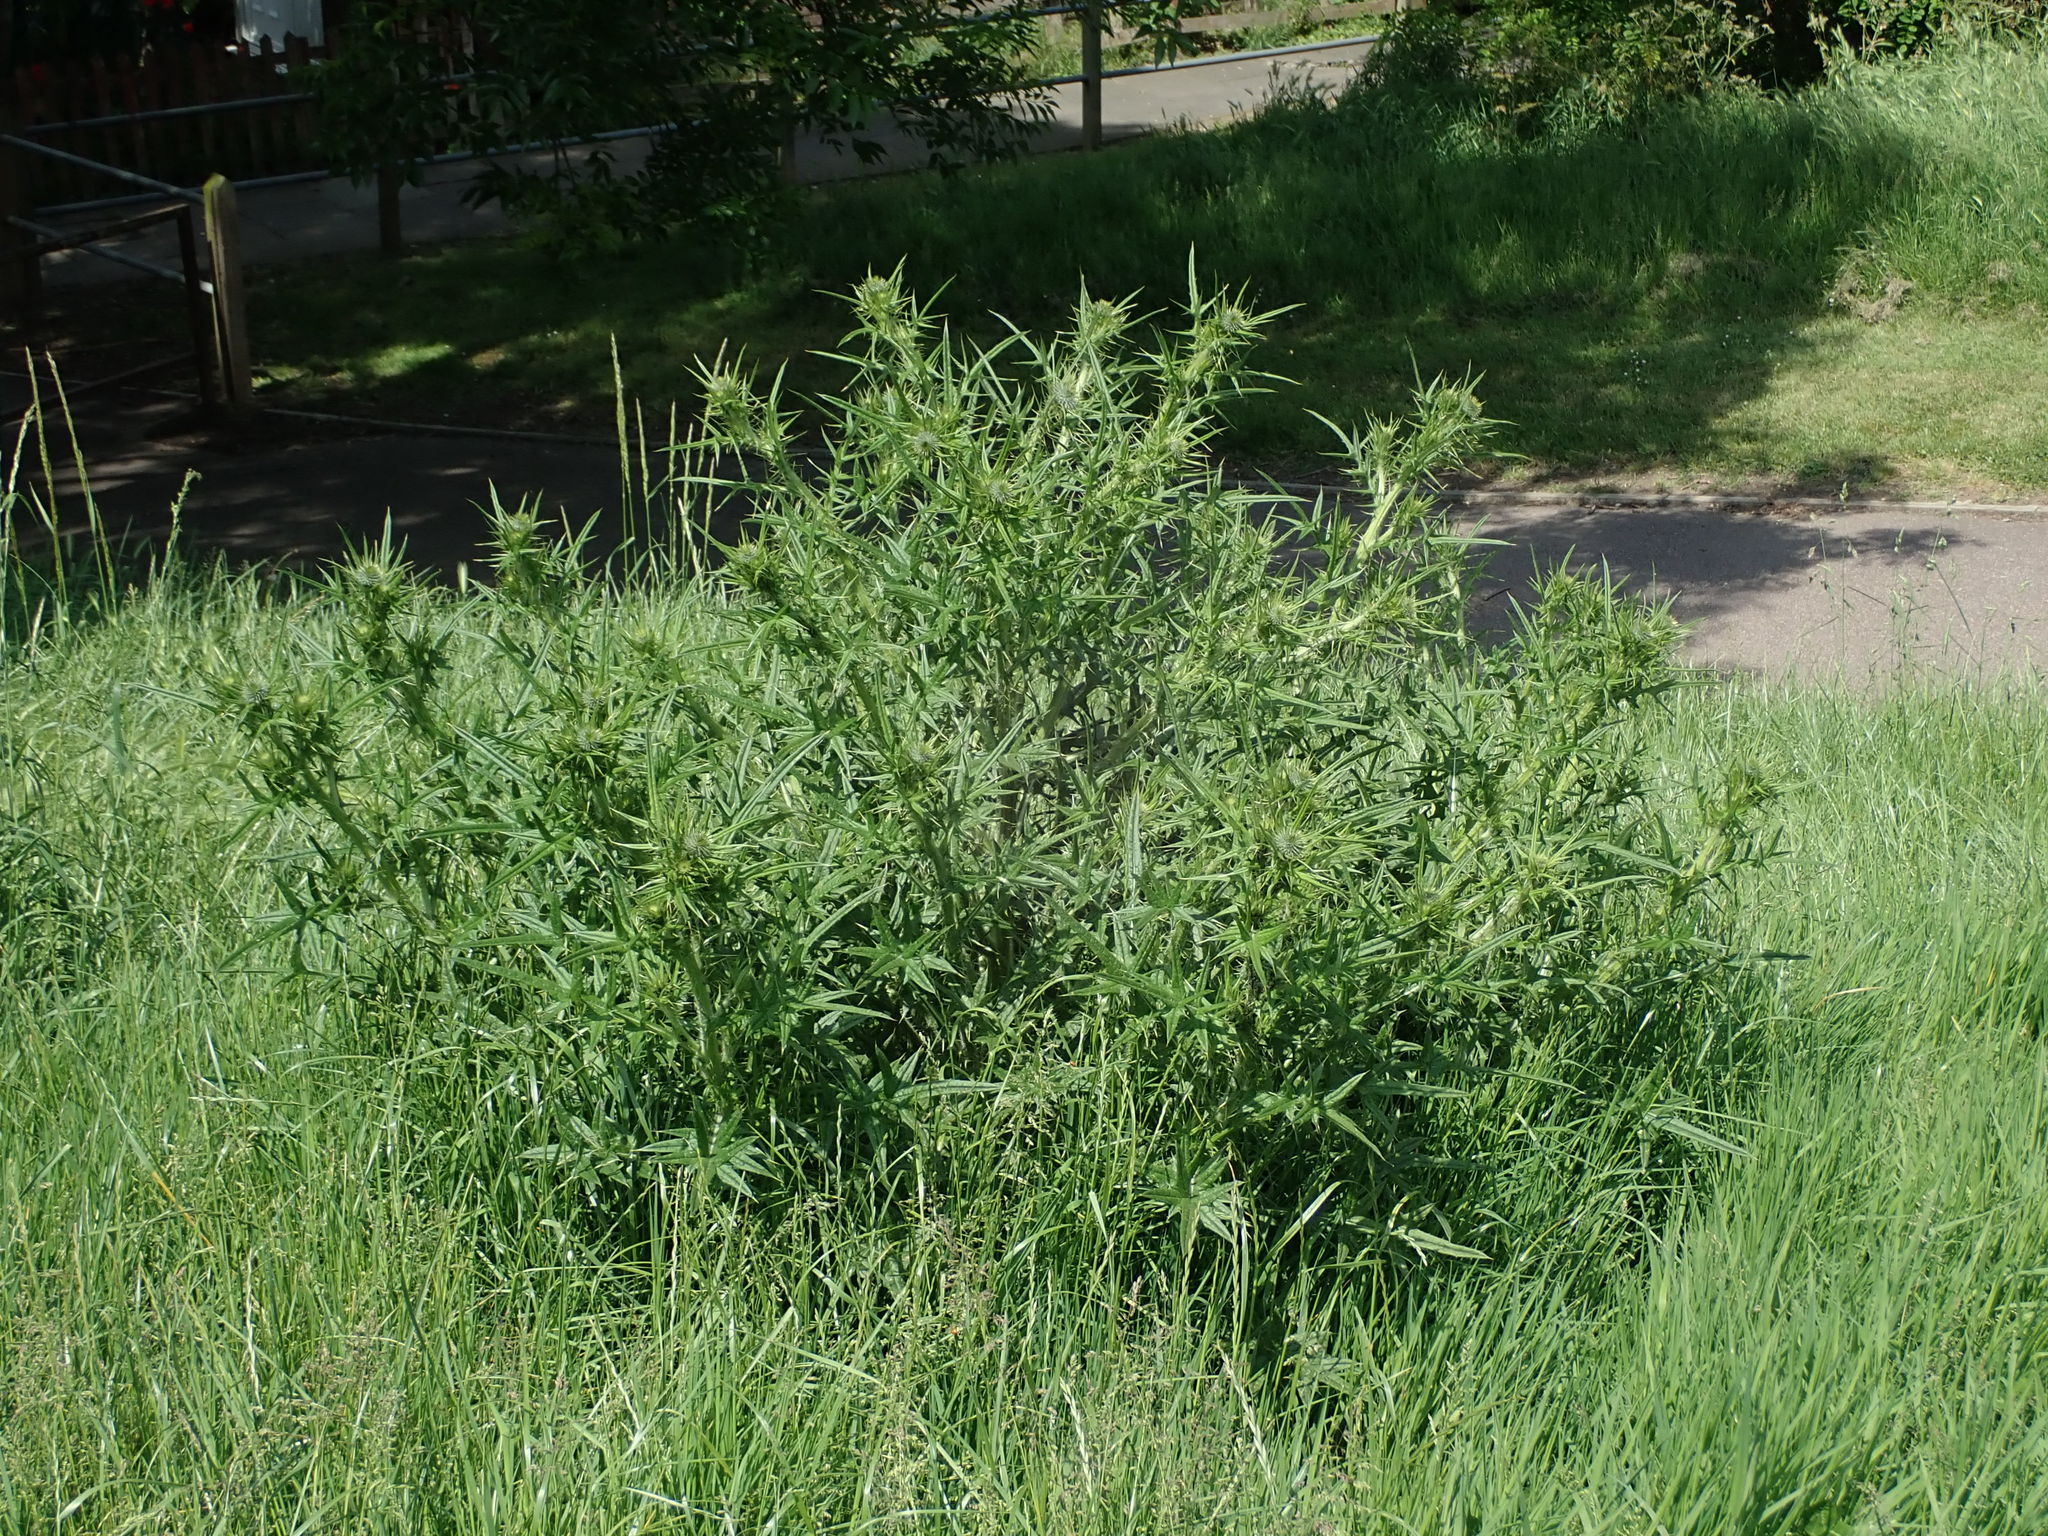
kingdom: Plantae
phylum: Tracheophyta
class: Magnoliopsida
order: Asterales
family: Asteraceae
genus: Cirsium
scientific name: Cirsium vulgare
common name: Bull thistle
